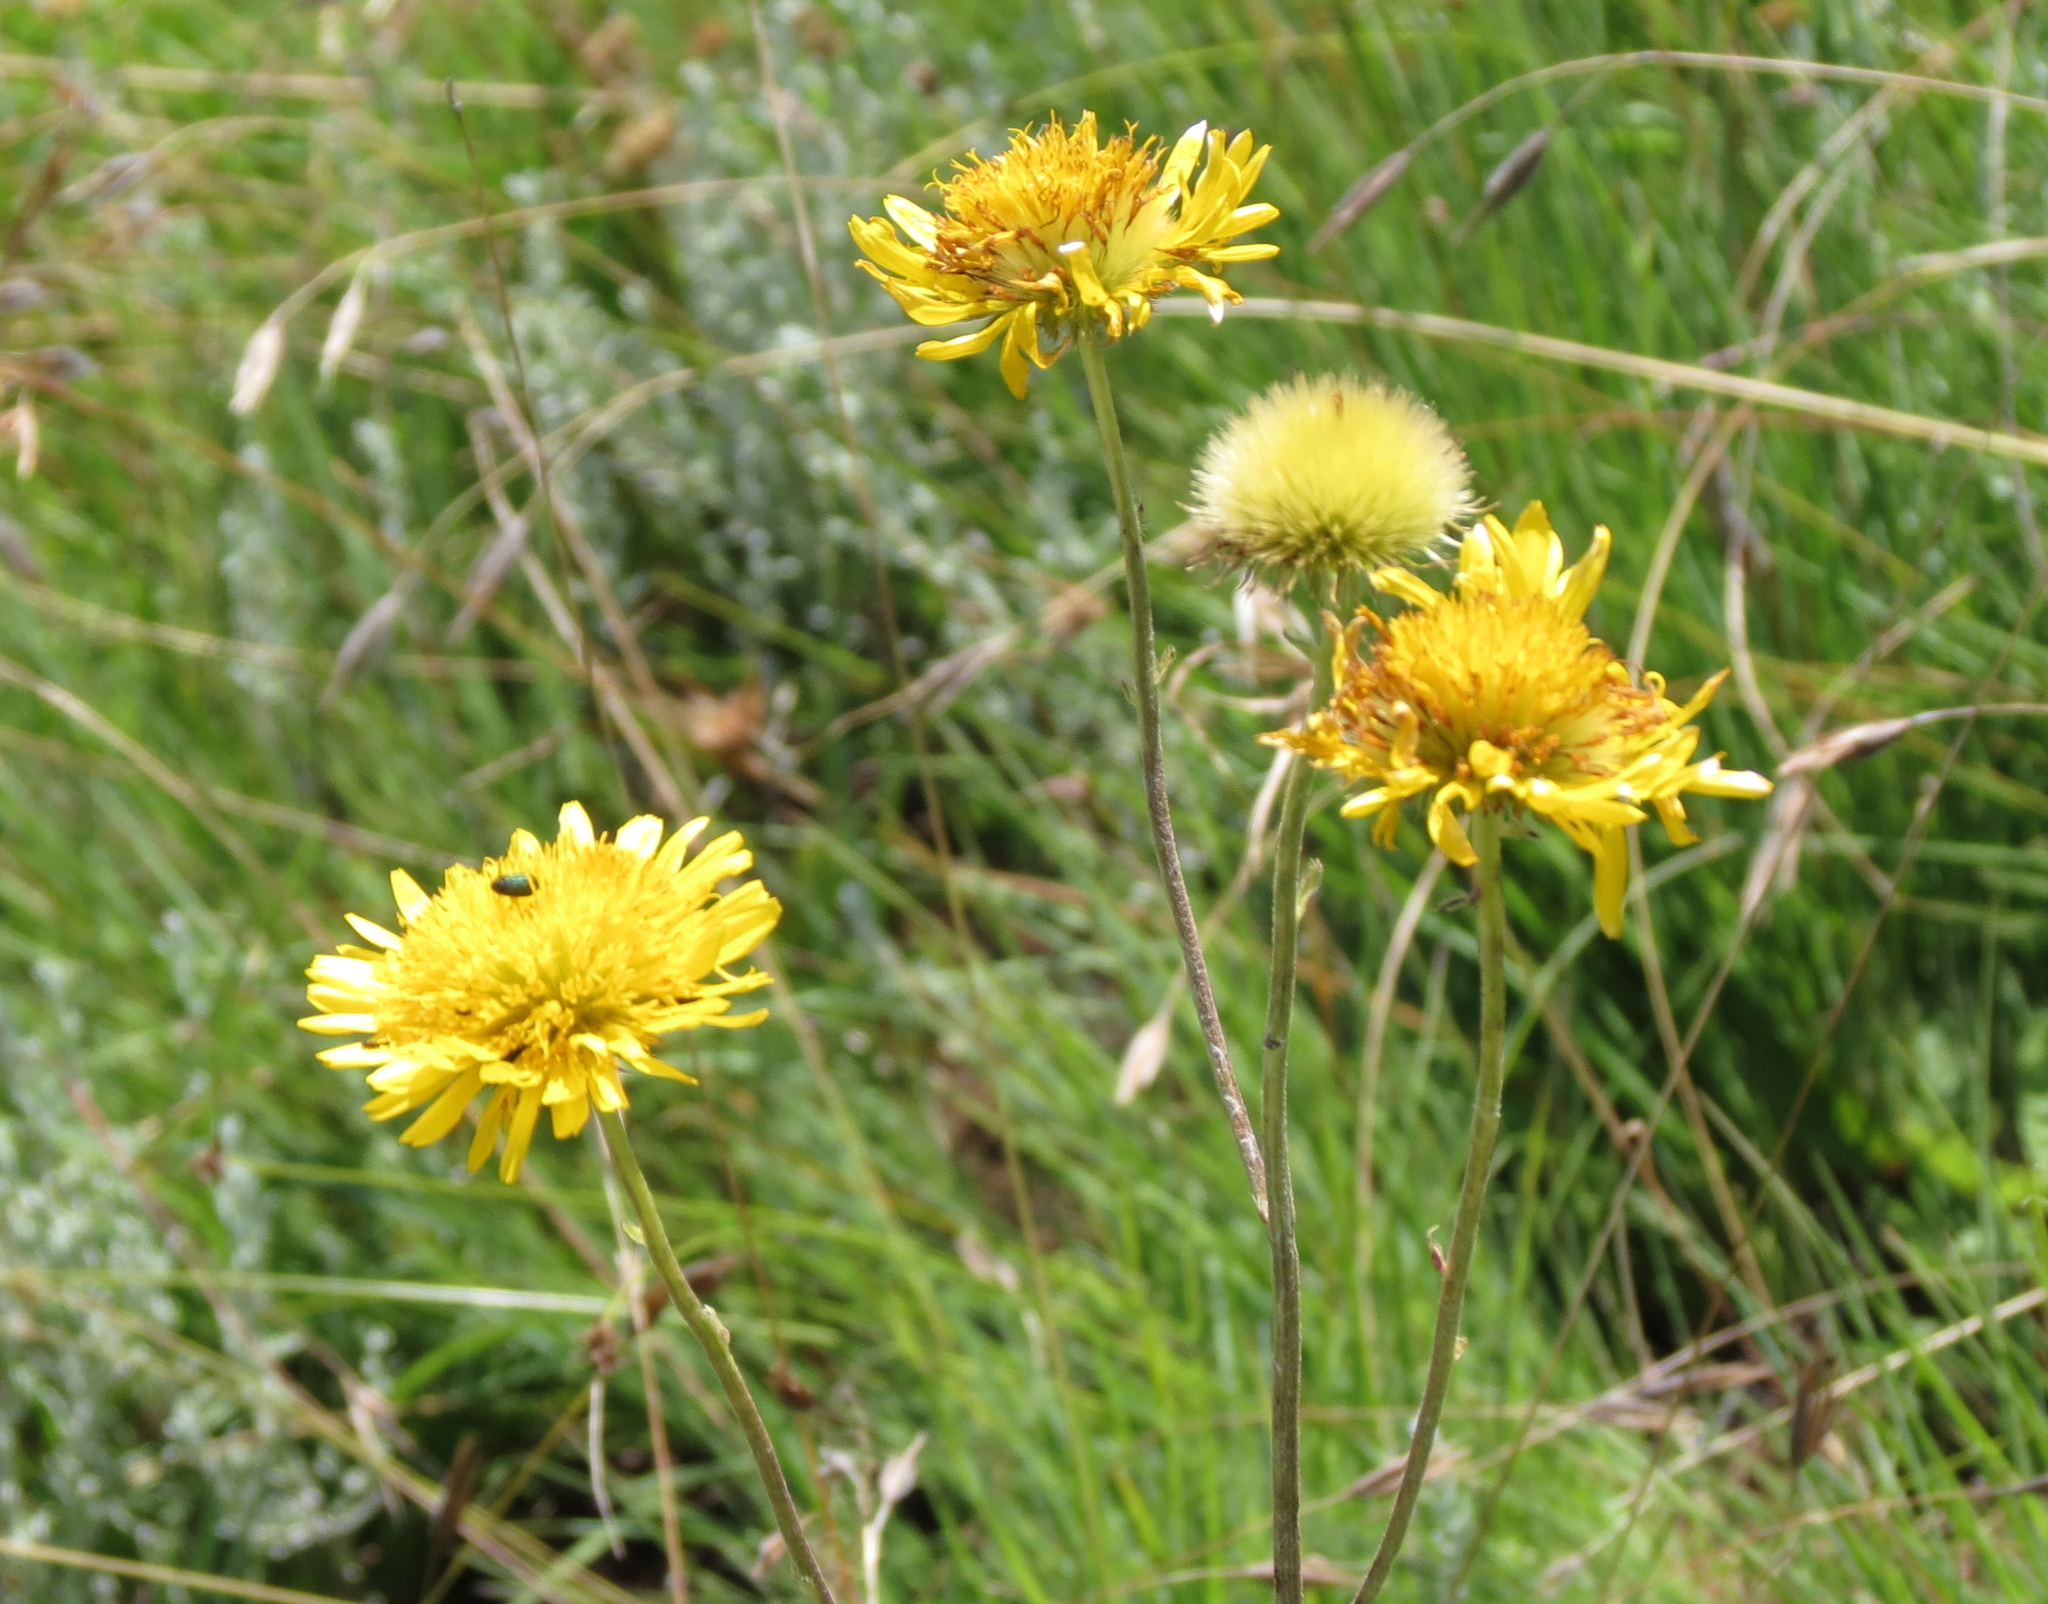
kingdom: Plantae
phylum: Tracheophyta
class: Magnoliopsida
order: Asterales
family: Asteraceae
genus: Berkheya
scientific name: Berkheya setifera
